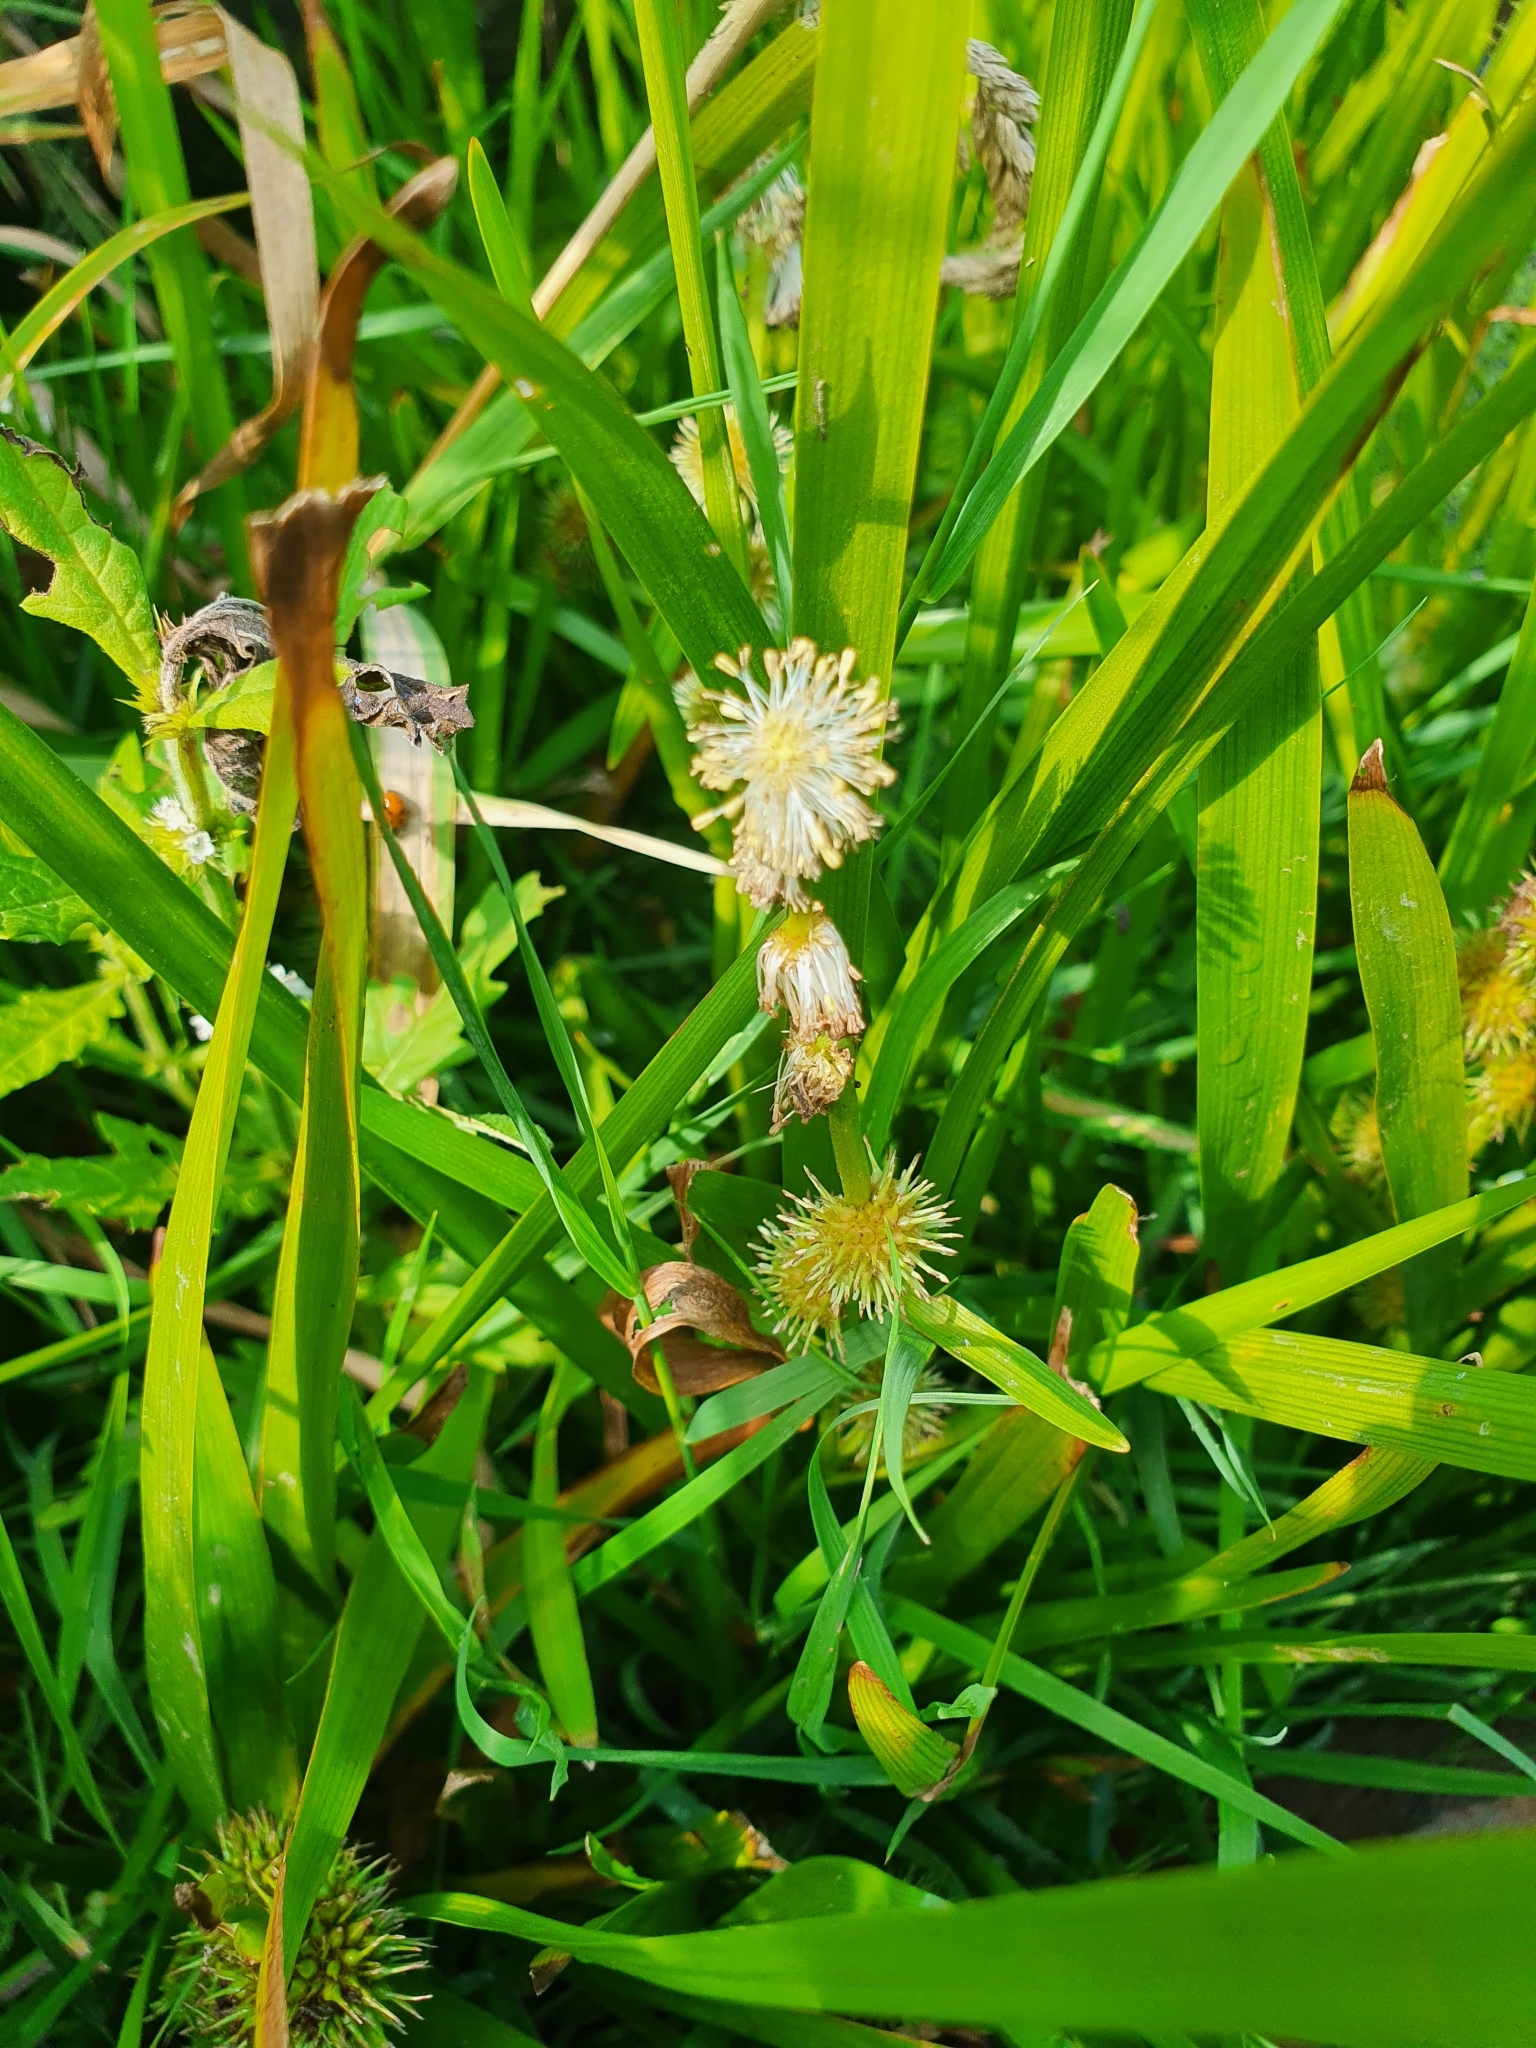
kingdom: Plantae
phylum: Tracheophyta
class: Liliopsida
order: Poales
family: Typhaceae
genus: Sparganium
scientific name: Sparganium emersum
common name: Unbranched bur-reed
